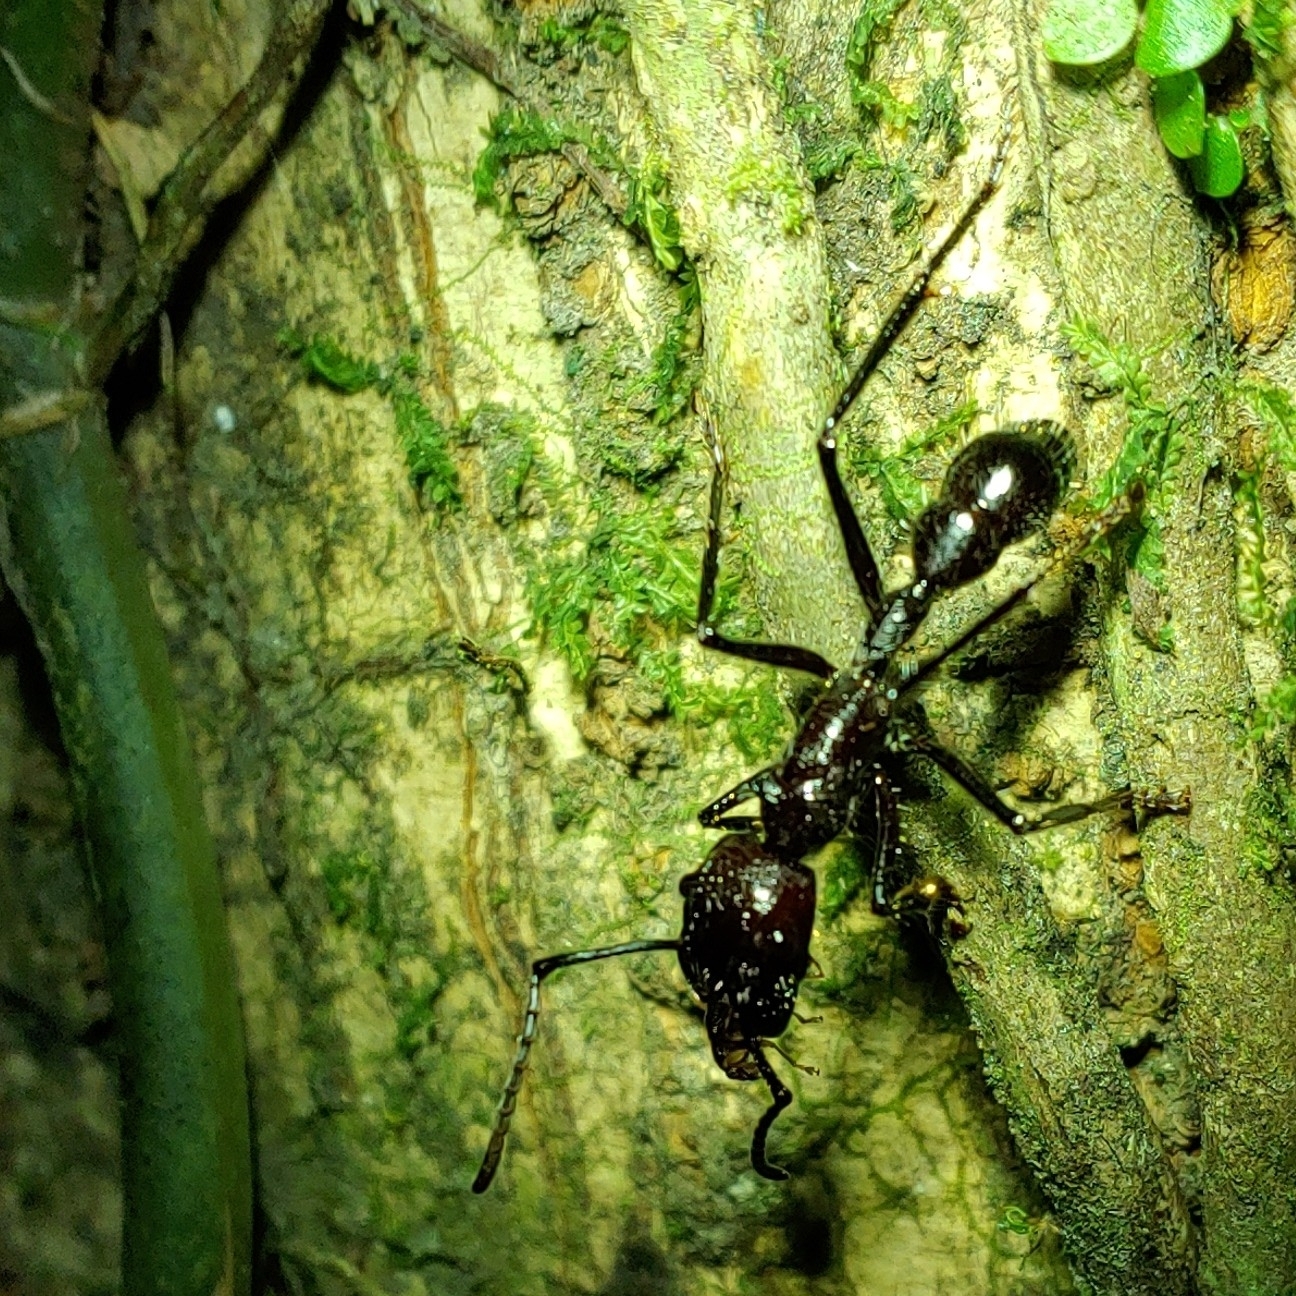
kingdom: Animalia
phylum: Arthropoda
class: Insecta
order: Hymenoptera
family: Formicidae
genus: Paraponera
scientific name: Paraponera clavata
